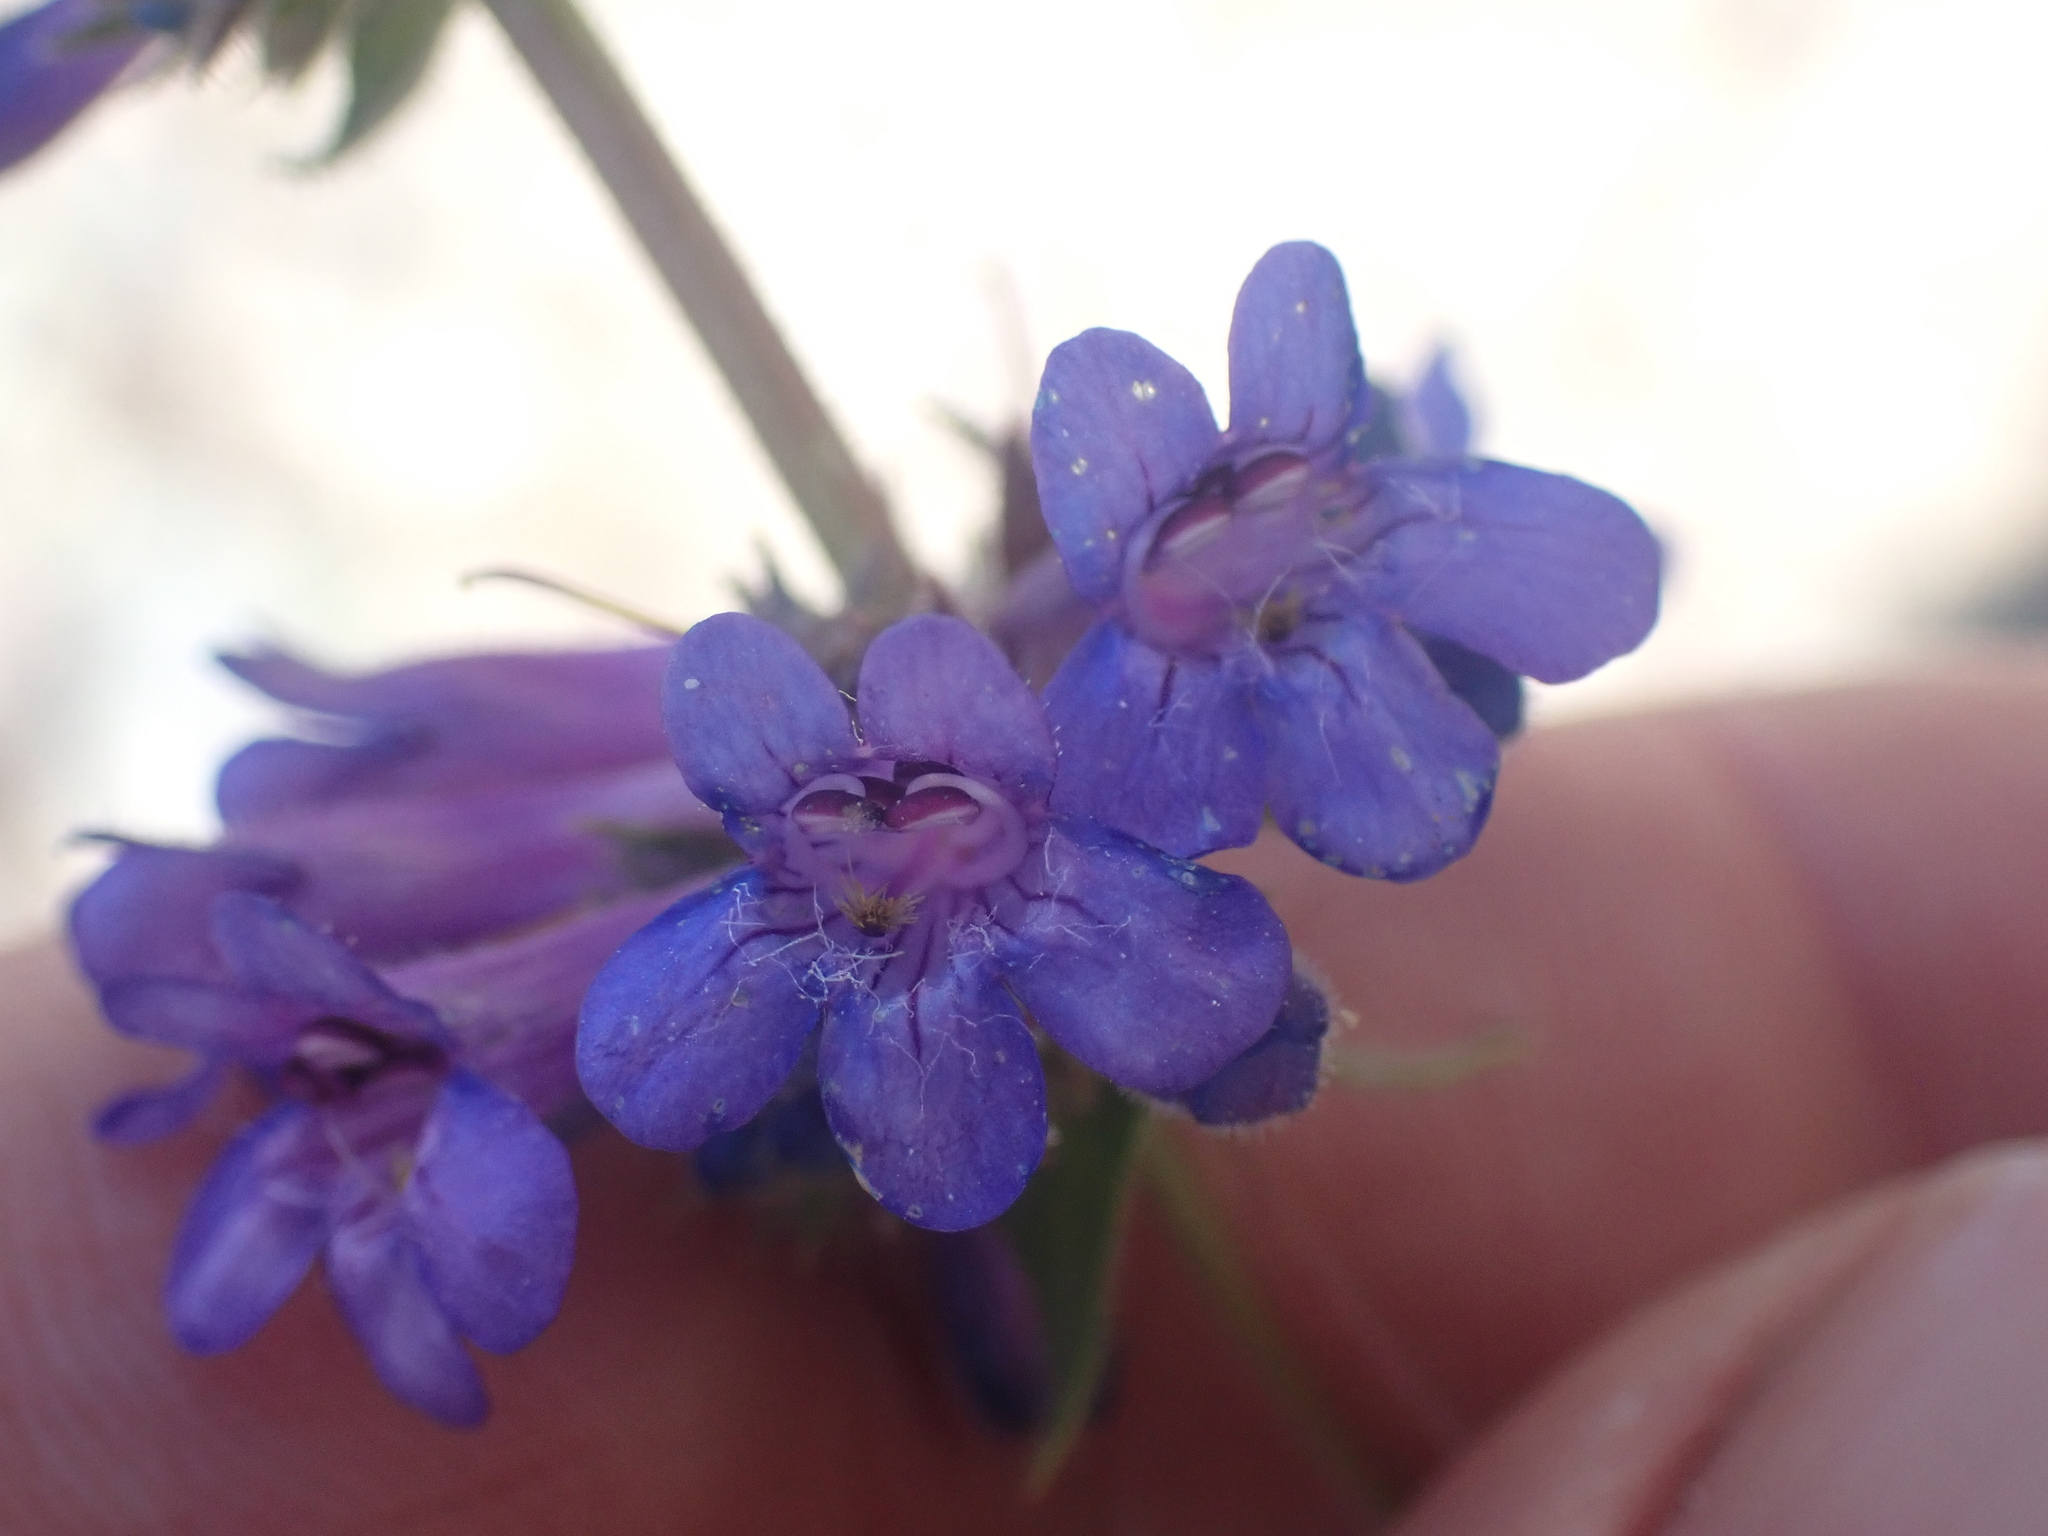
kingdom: Plantae
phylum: Tracheophyta
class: Magnoliopsida
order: Lamiales
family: Plantaginaceae
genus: Penstemon
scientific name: Penstemon pruinosus
